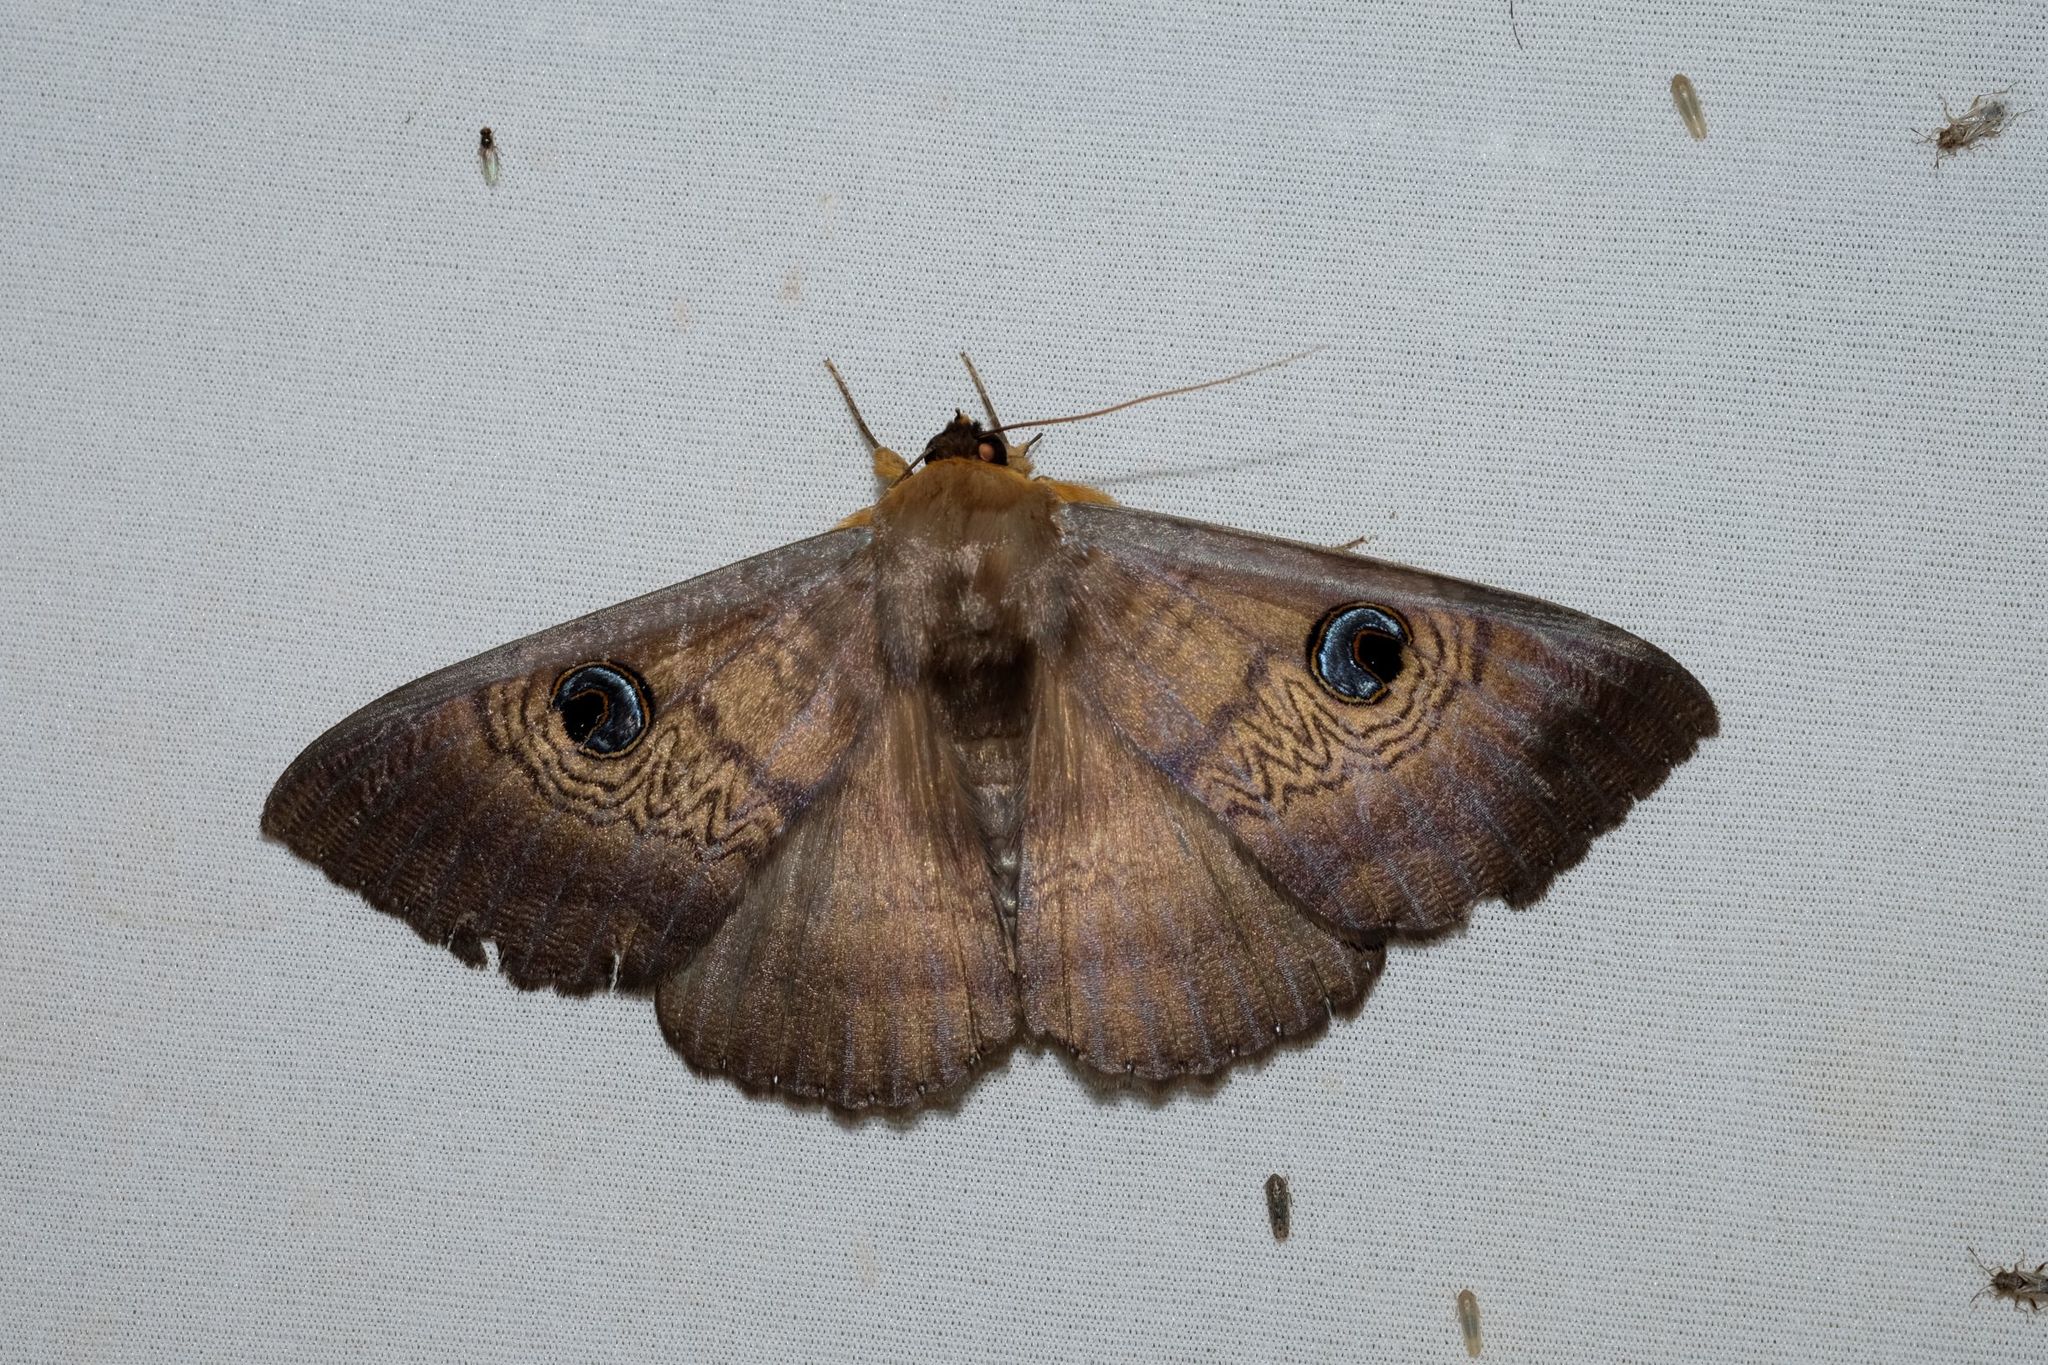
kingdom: Animalia
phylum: Arthropoda
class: Insecta
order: Lepidoptera
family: Erebidae
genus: Dasypodia
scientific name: Dasypodia selenophora
